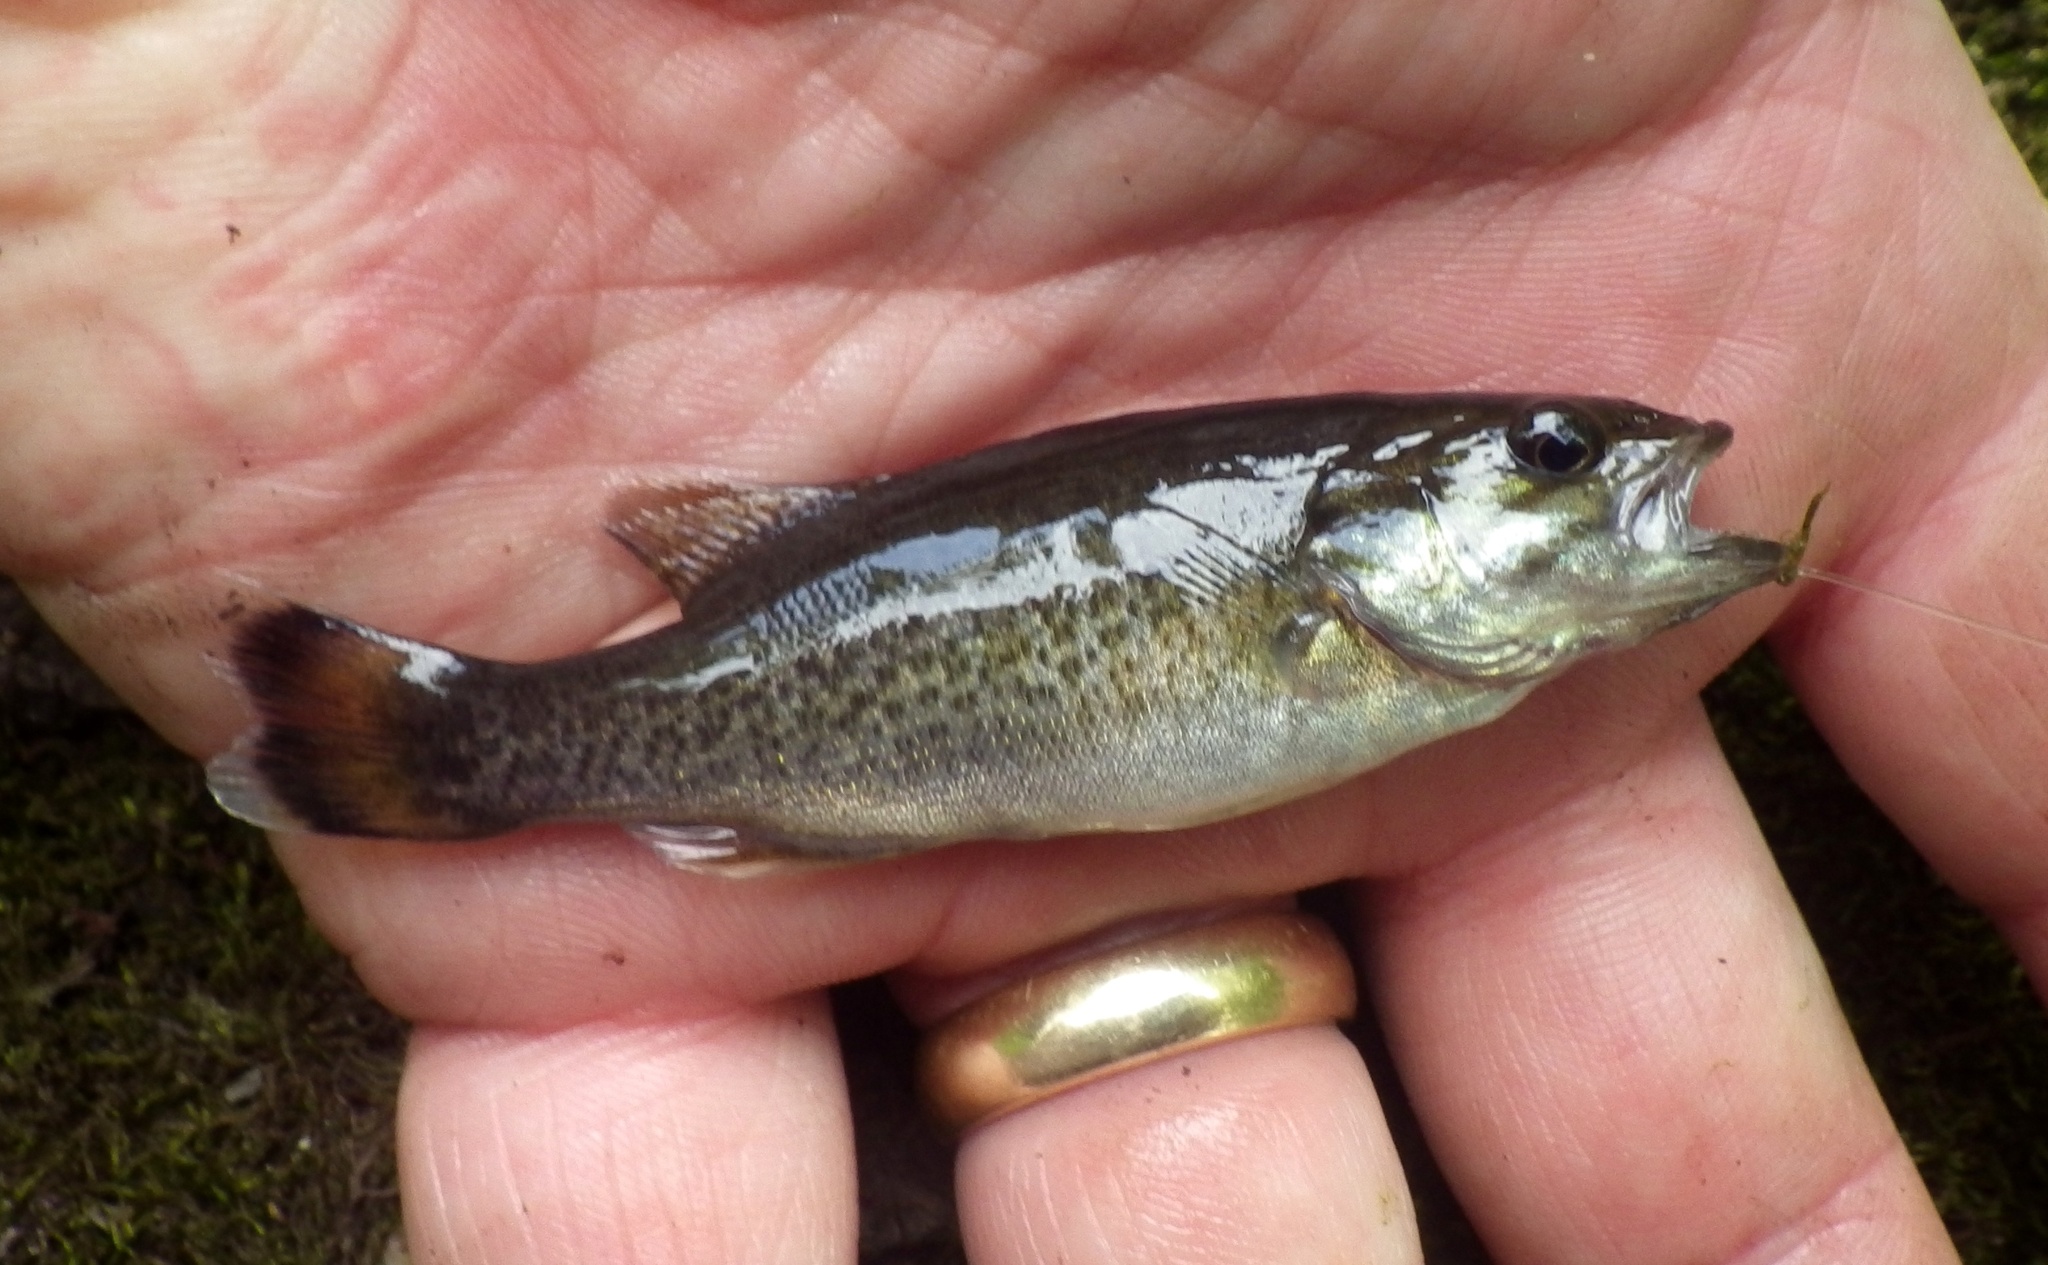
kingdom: Animalia
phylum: Chordata
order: Perciformes
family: Centrarchidae
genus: Micropterus
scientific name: Micropterus dolomieu
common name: Smallmouth bass
